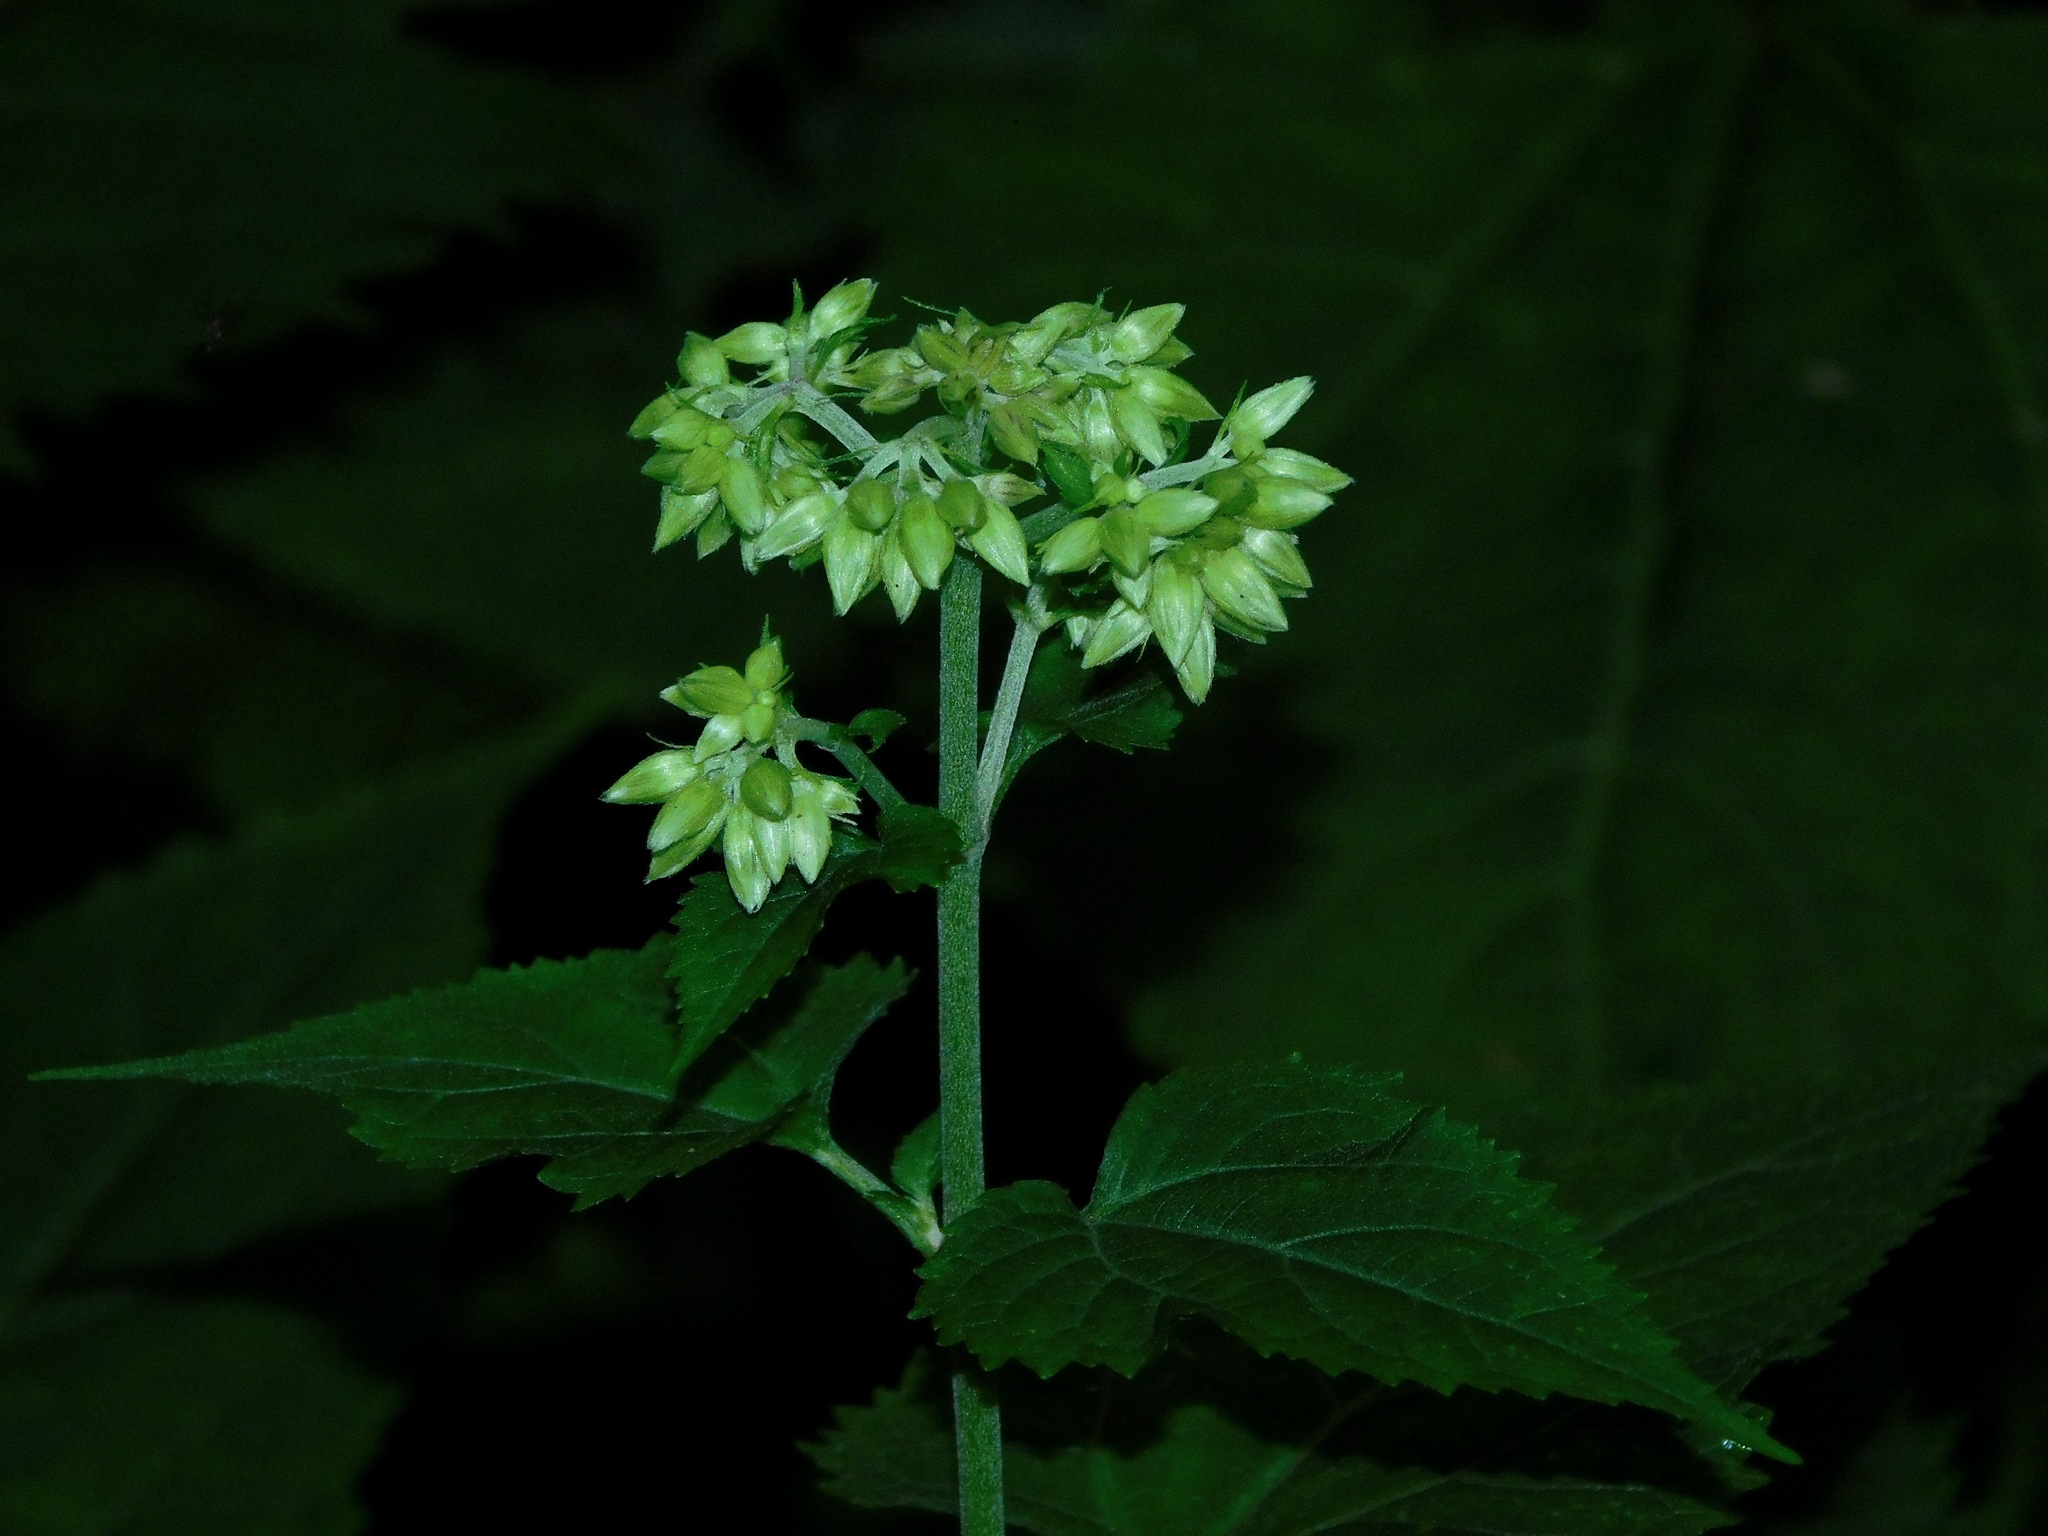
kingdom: Plantae
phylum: Tracheophyta
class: Magnoliopsida
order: Asterales
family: Asteraceae
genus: Ageratina
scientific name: Ageratina roanensis
